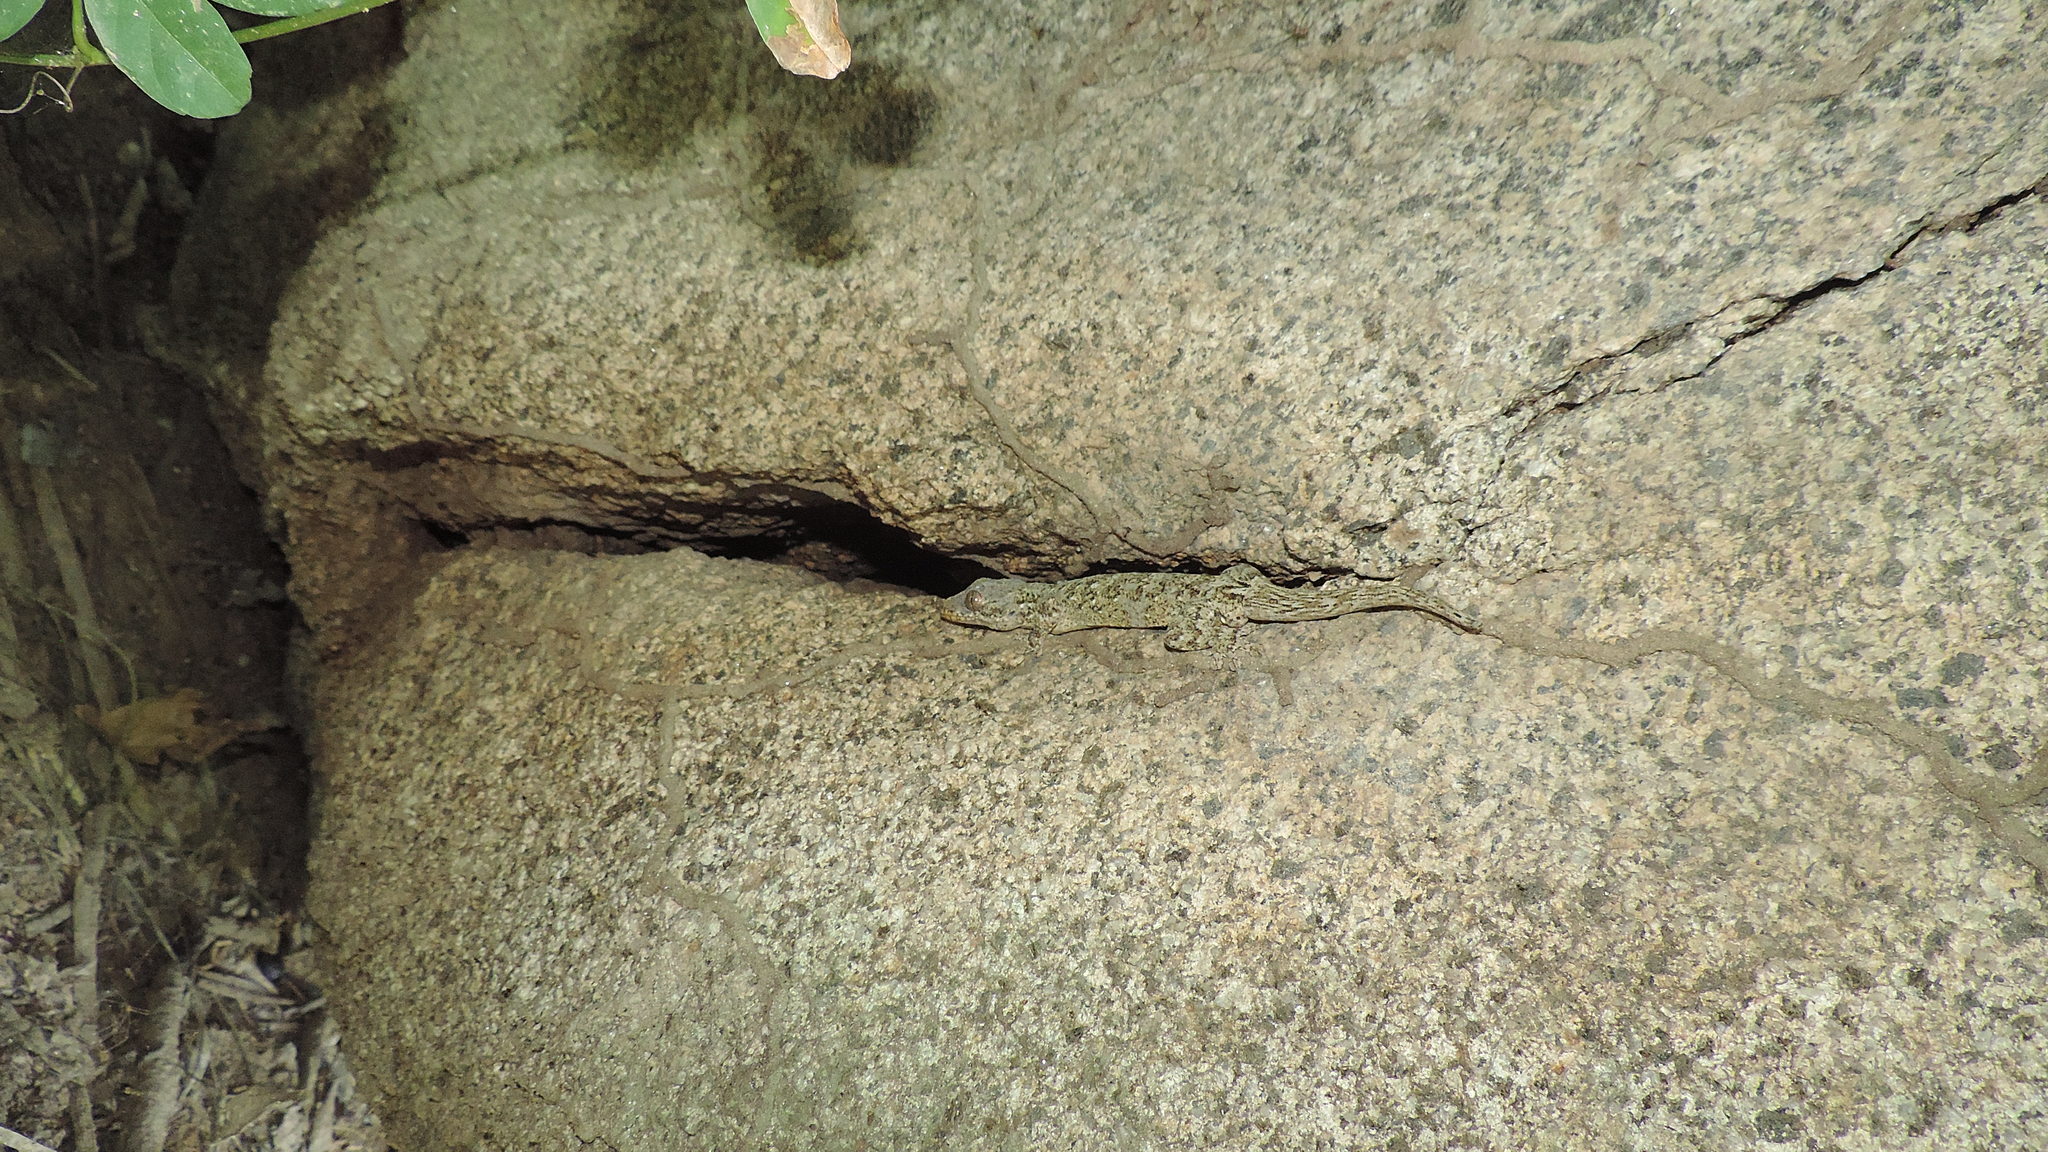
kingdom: Animalia
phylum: Chordata
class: Squamata
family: Phyllodactylidae
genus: Thecadactylus
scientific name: Thecadactylus rapicauda
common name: Turnip-tailed gecko
